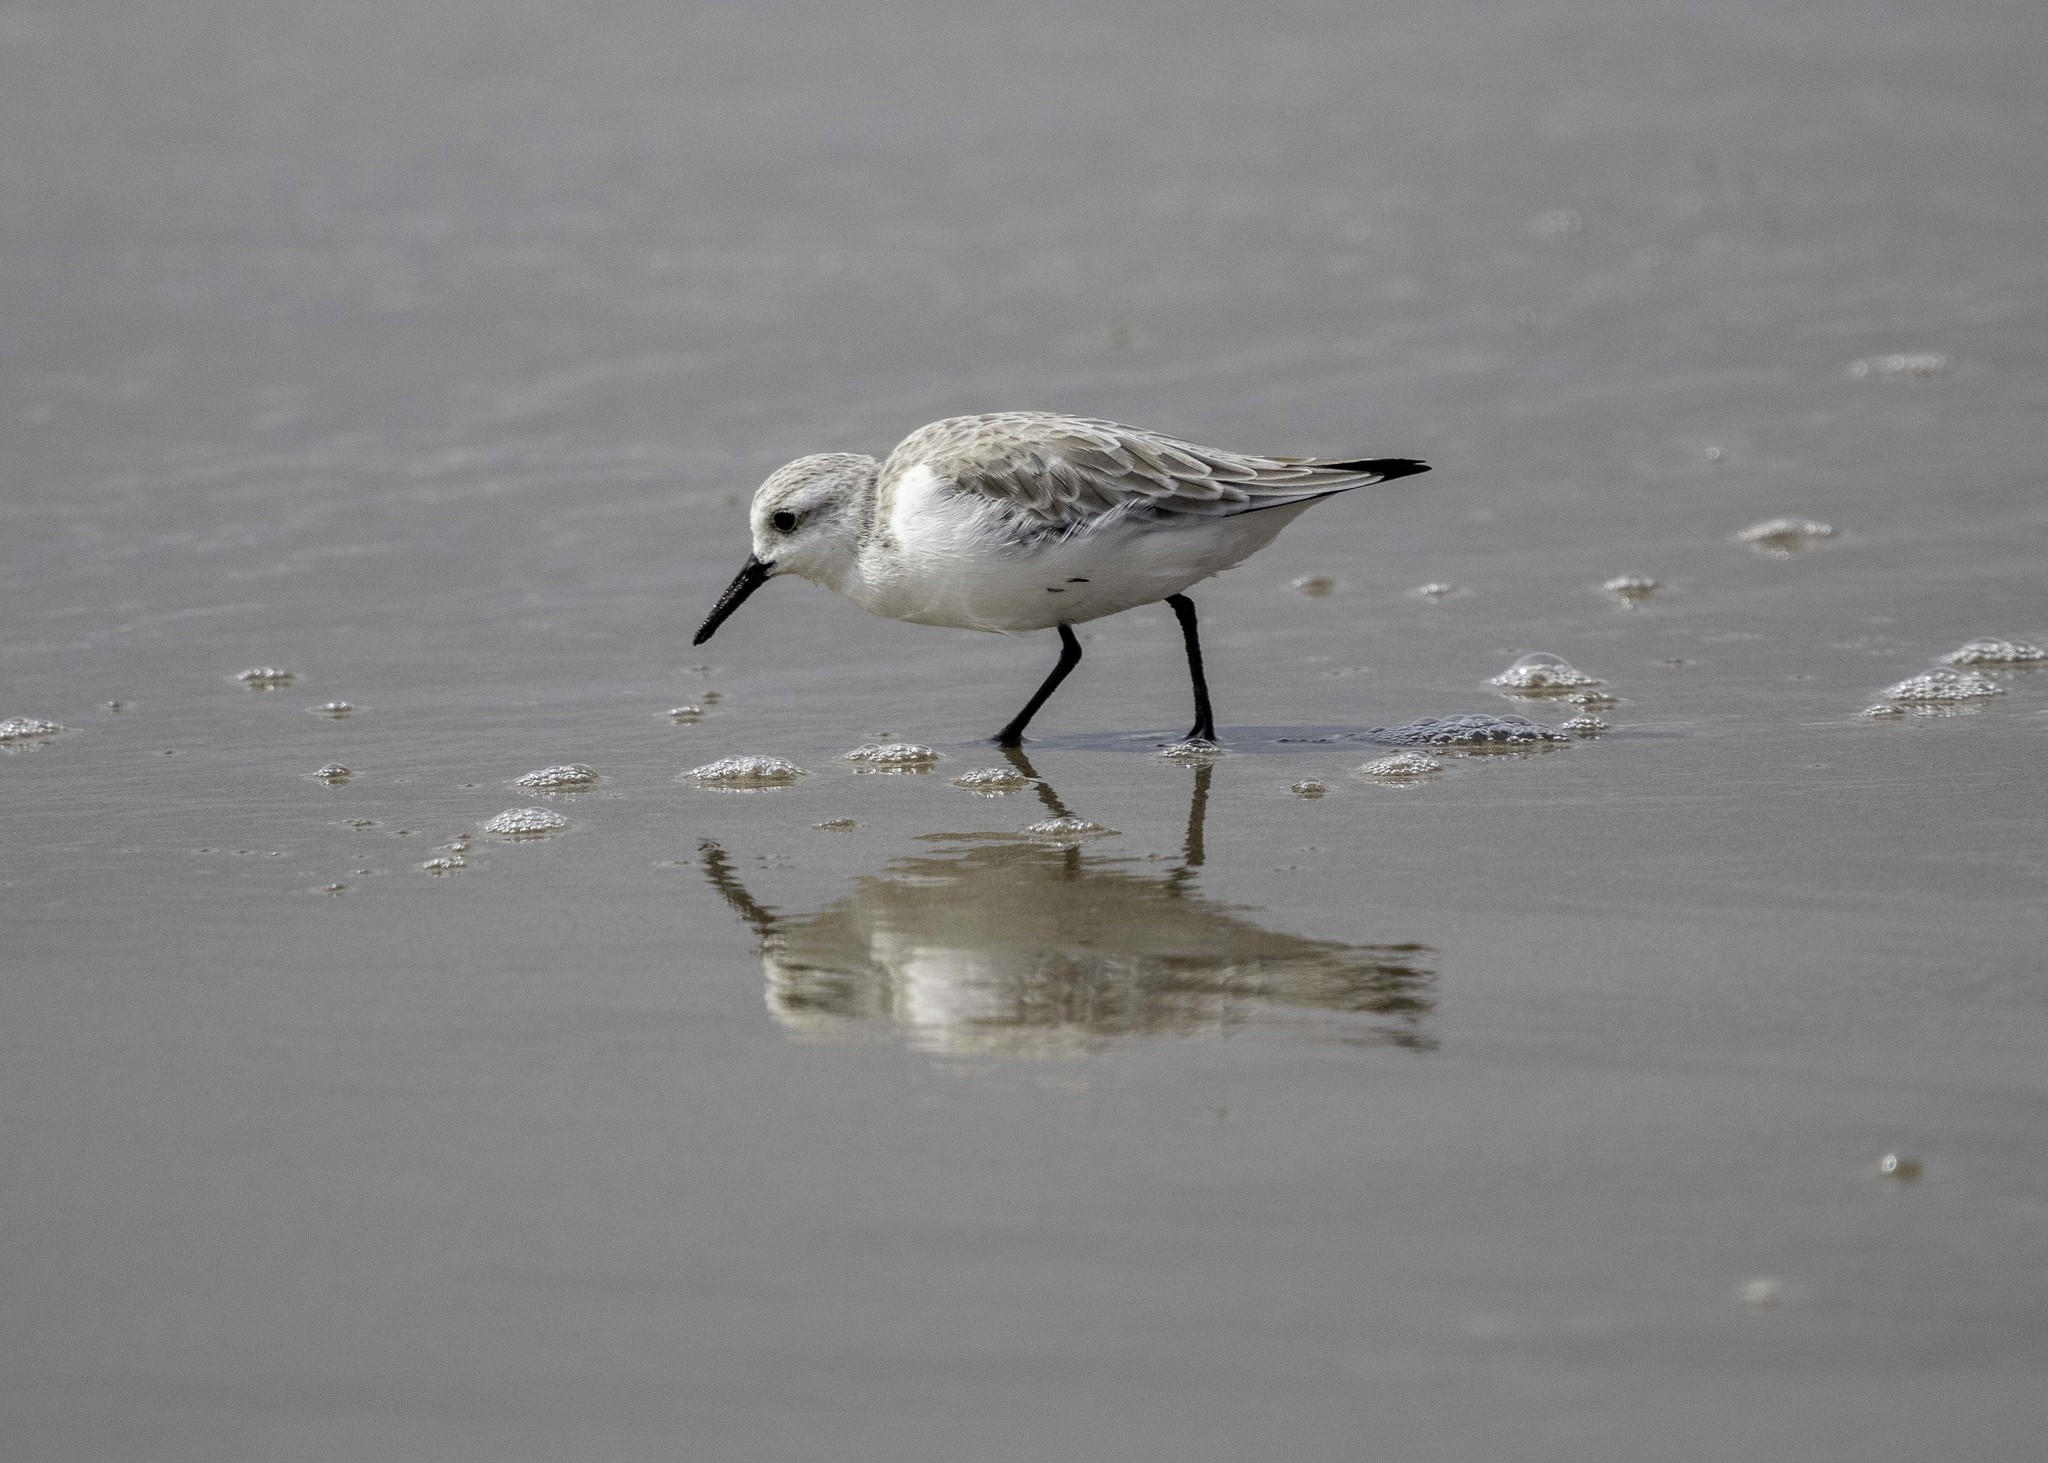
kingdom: Animalia
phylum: Chordata
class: Aves
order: Charadriiformes
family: Scolopacidae
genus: Calidris
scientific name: Calidris alba
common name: Sanderling
